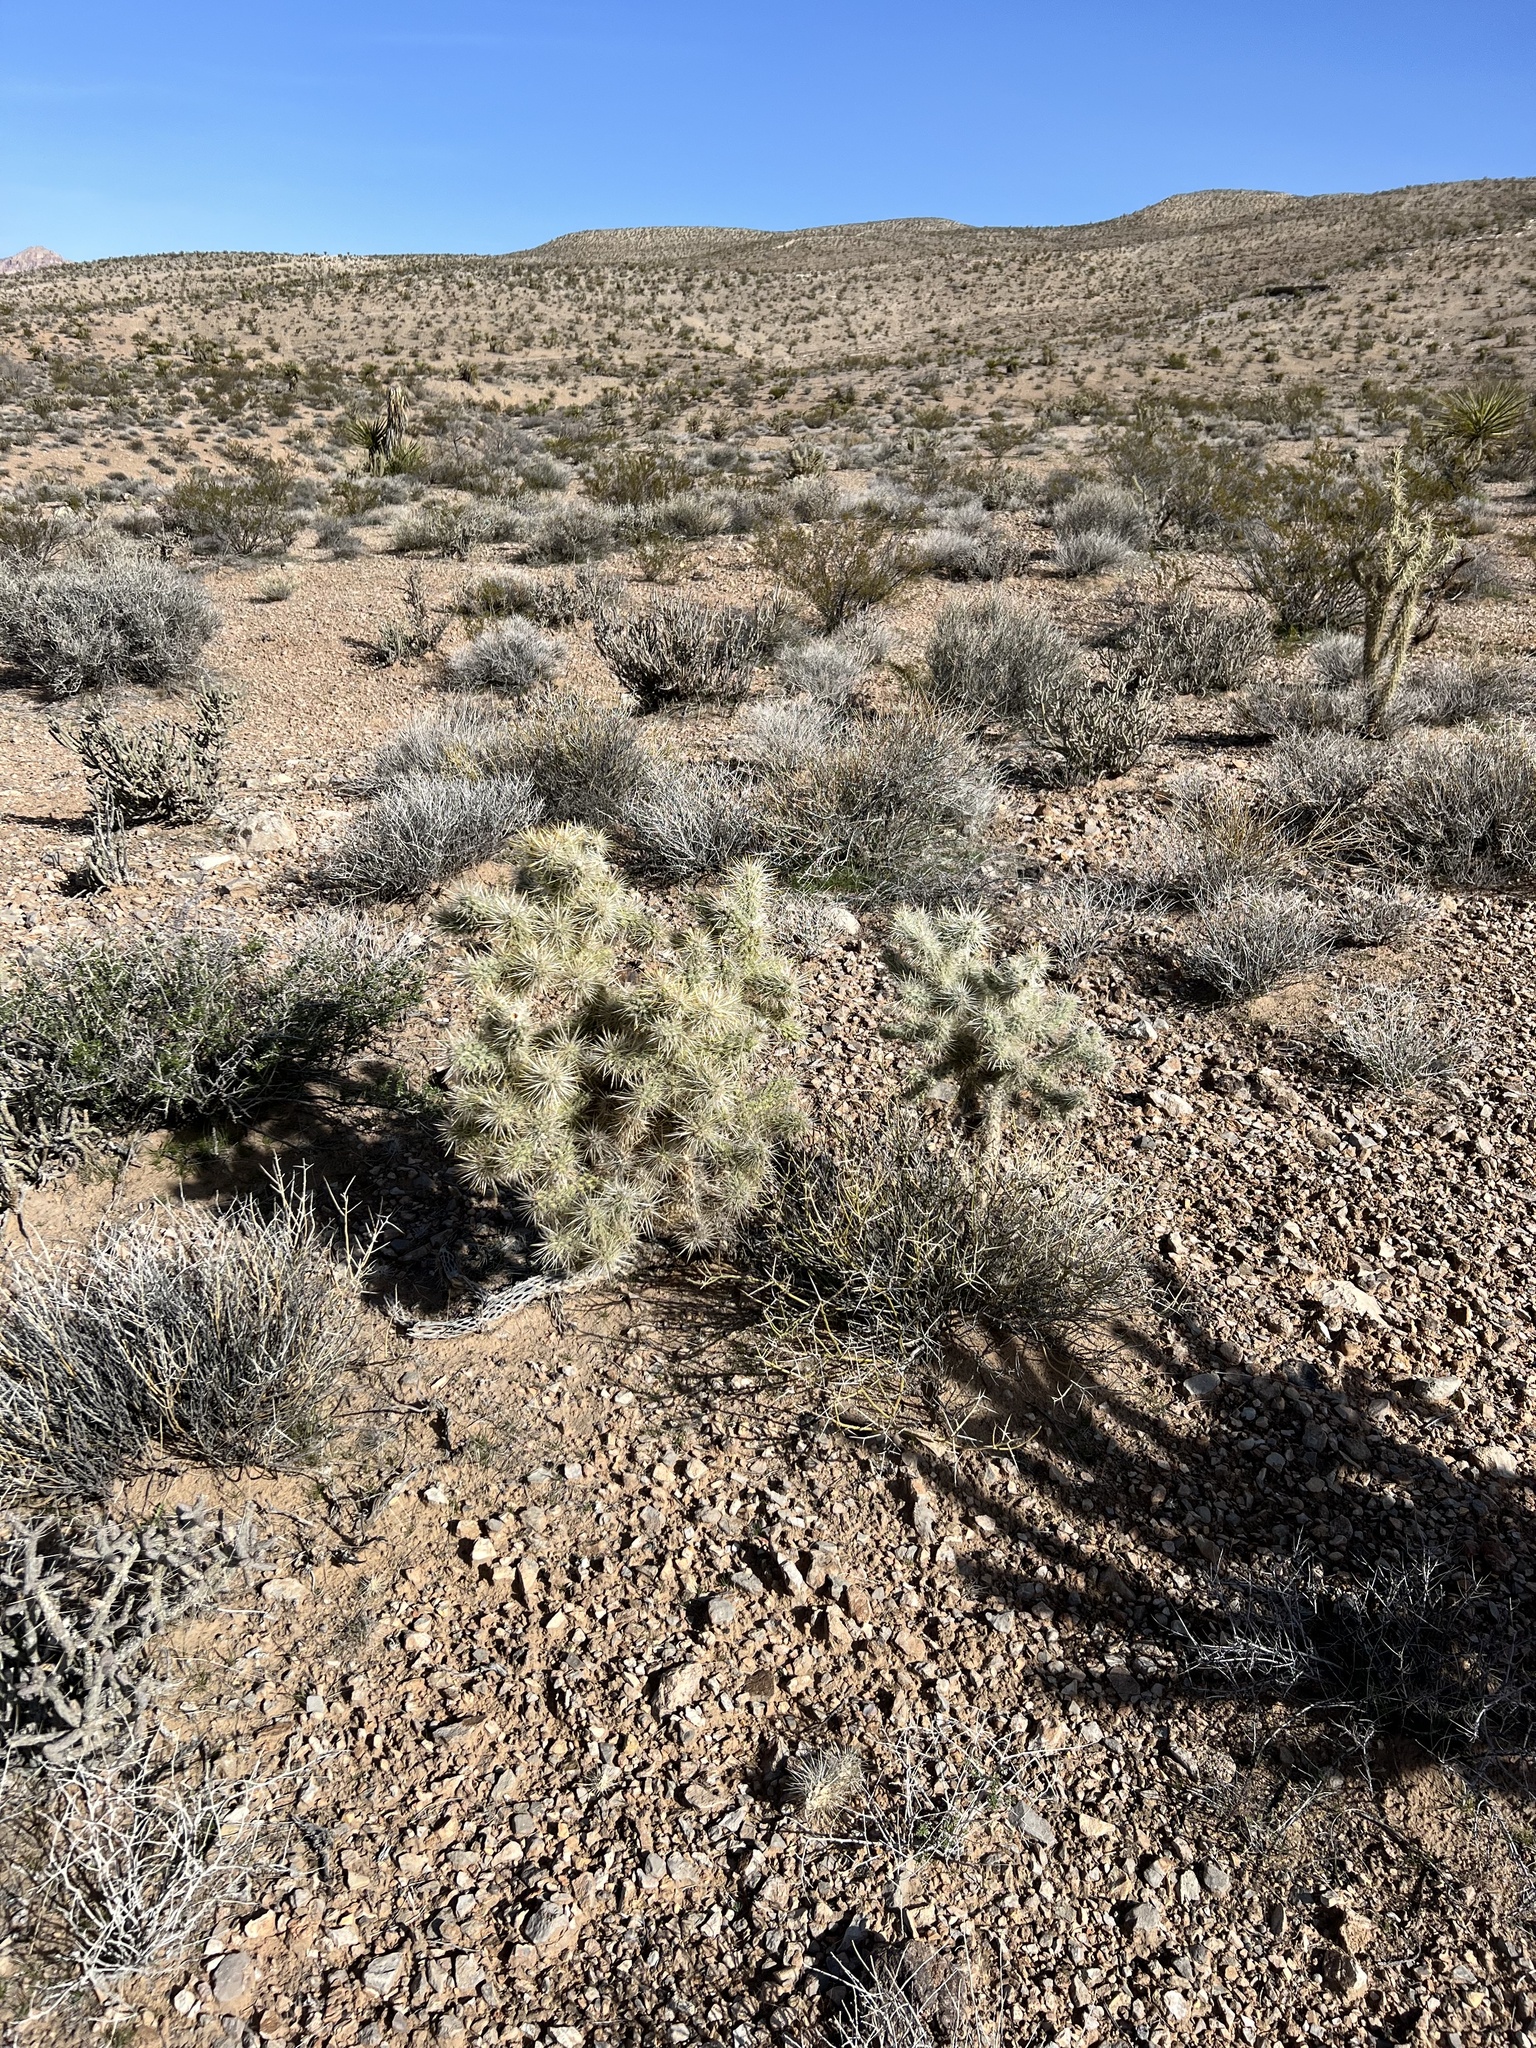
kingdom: Plantae
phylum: Tracheophyta
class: Magnoliopsida
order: Caryophyllales
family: Cactaceae
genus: Cylindropuntia
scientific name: Cylindropuntia echinocarpa
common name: Ground cholla
